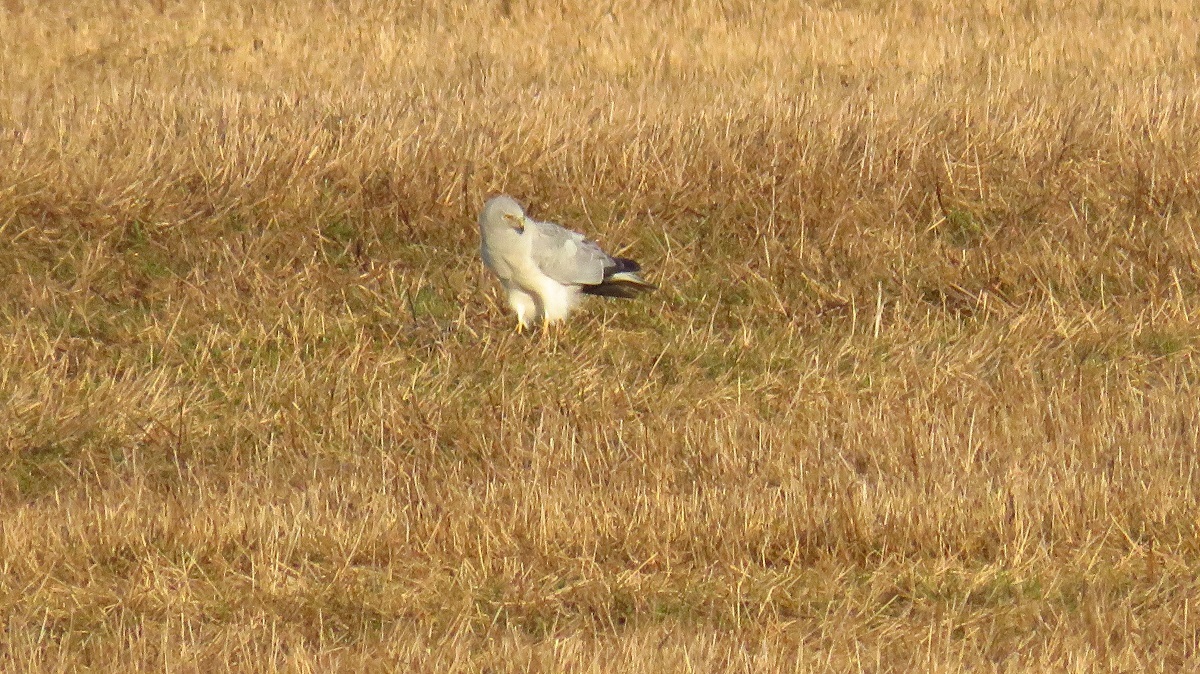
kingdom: Animalia
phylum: Chordata
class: Aves
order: Accipitriformes
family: Accipitridae
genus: Circus
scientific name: Circus macrourus
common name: Pallid harrier
